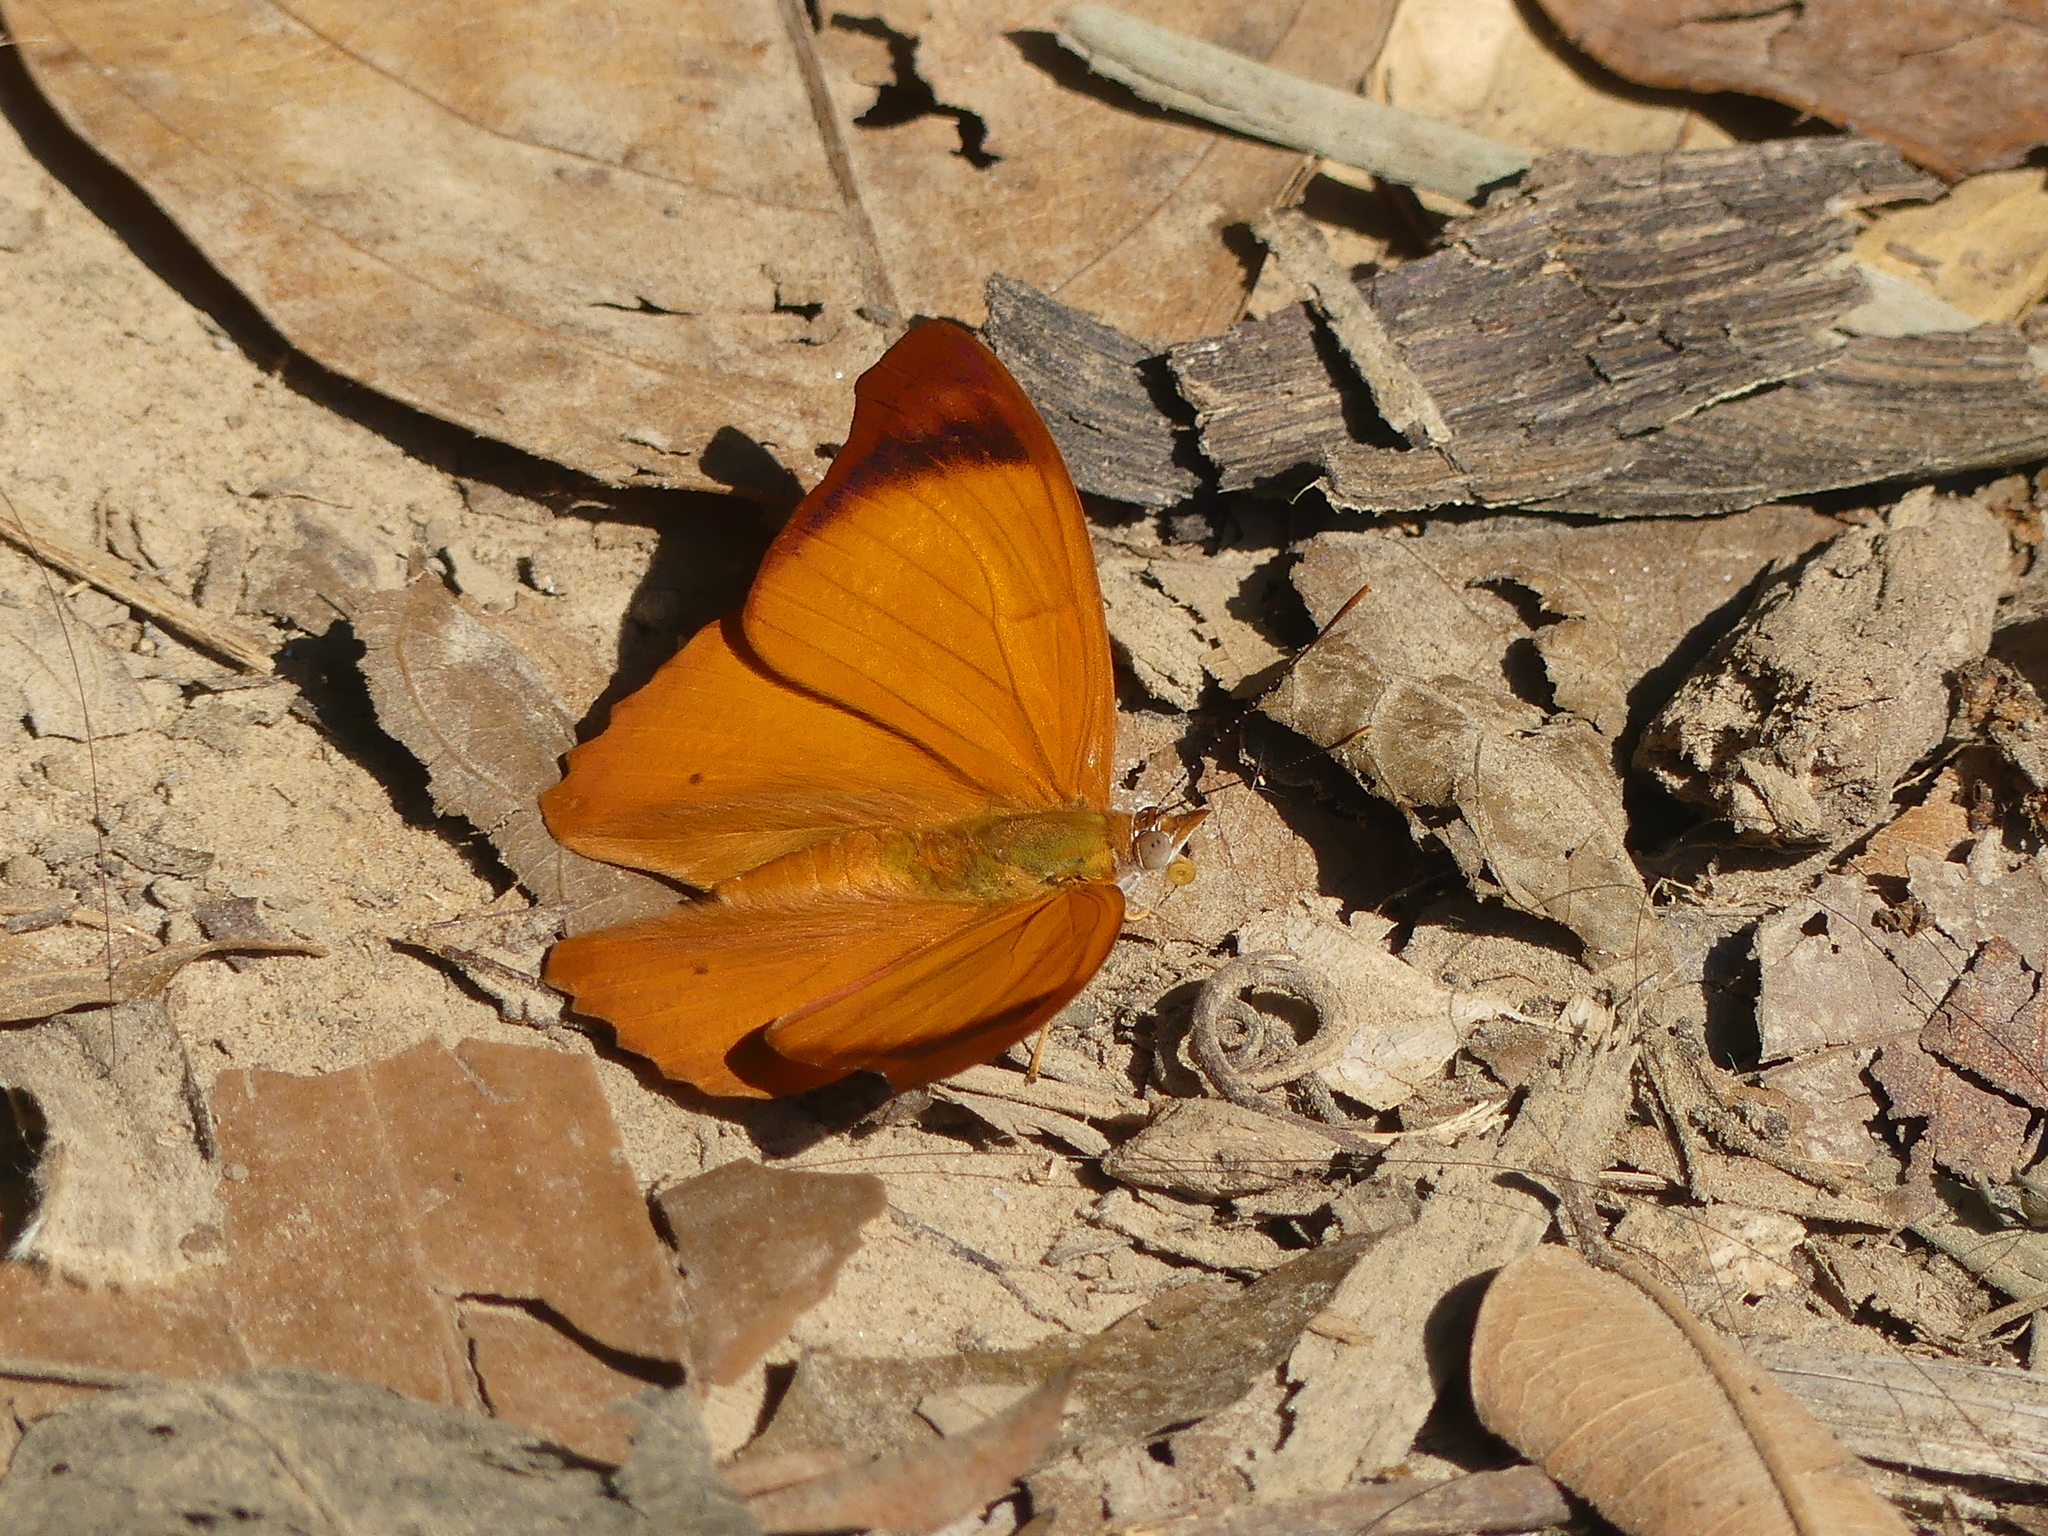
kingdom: Animalia
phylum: Arthropoda
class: Insecta
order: Lepidoptera
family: Nymphalidae
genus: Temenis
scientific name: Temenis laothoe
